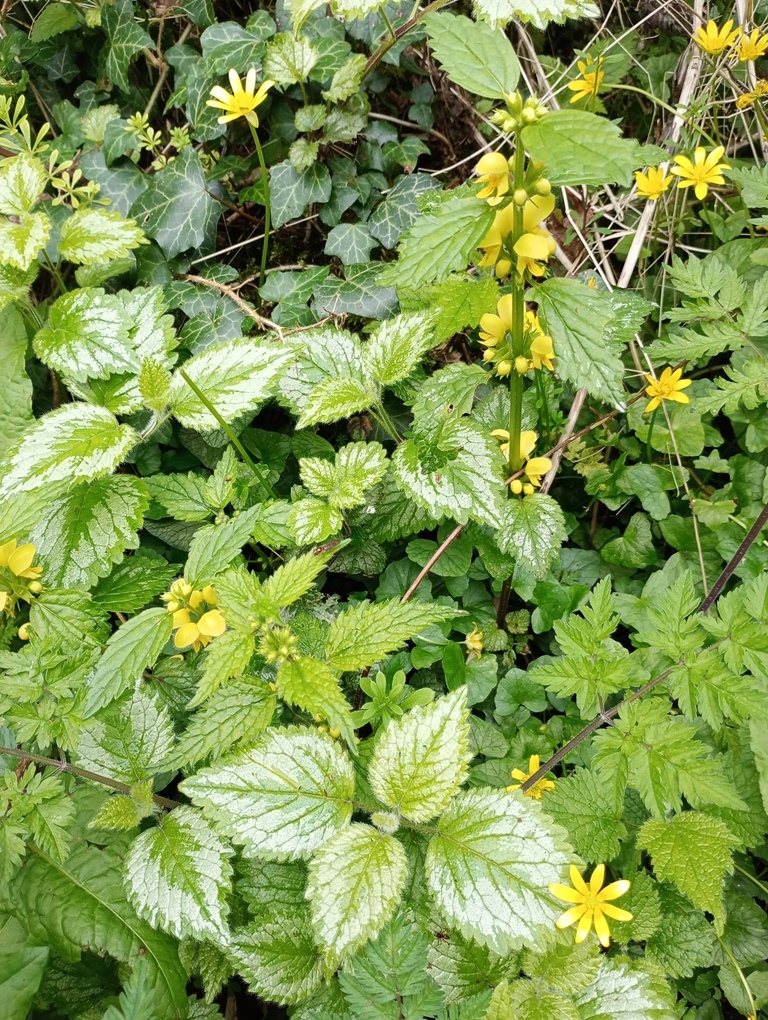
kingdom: Plantae
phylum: Tracheophyta
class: Magnoliopsida
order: Lamiales
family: Lamiaceae
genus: Lamium
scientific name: Lamium galeobdolon
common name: Yellow archangel
